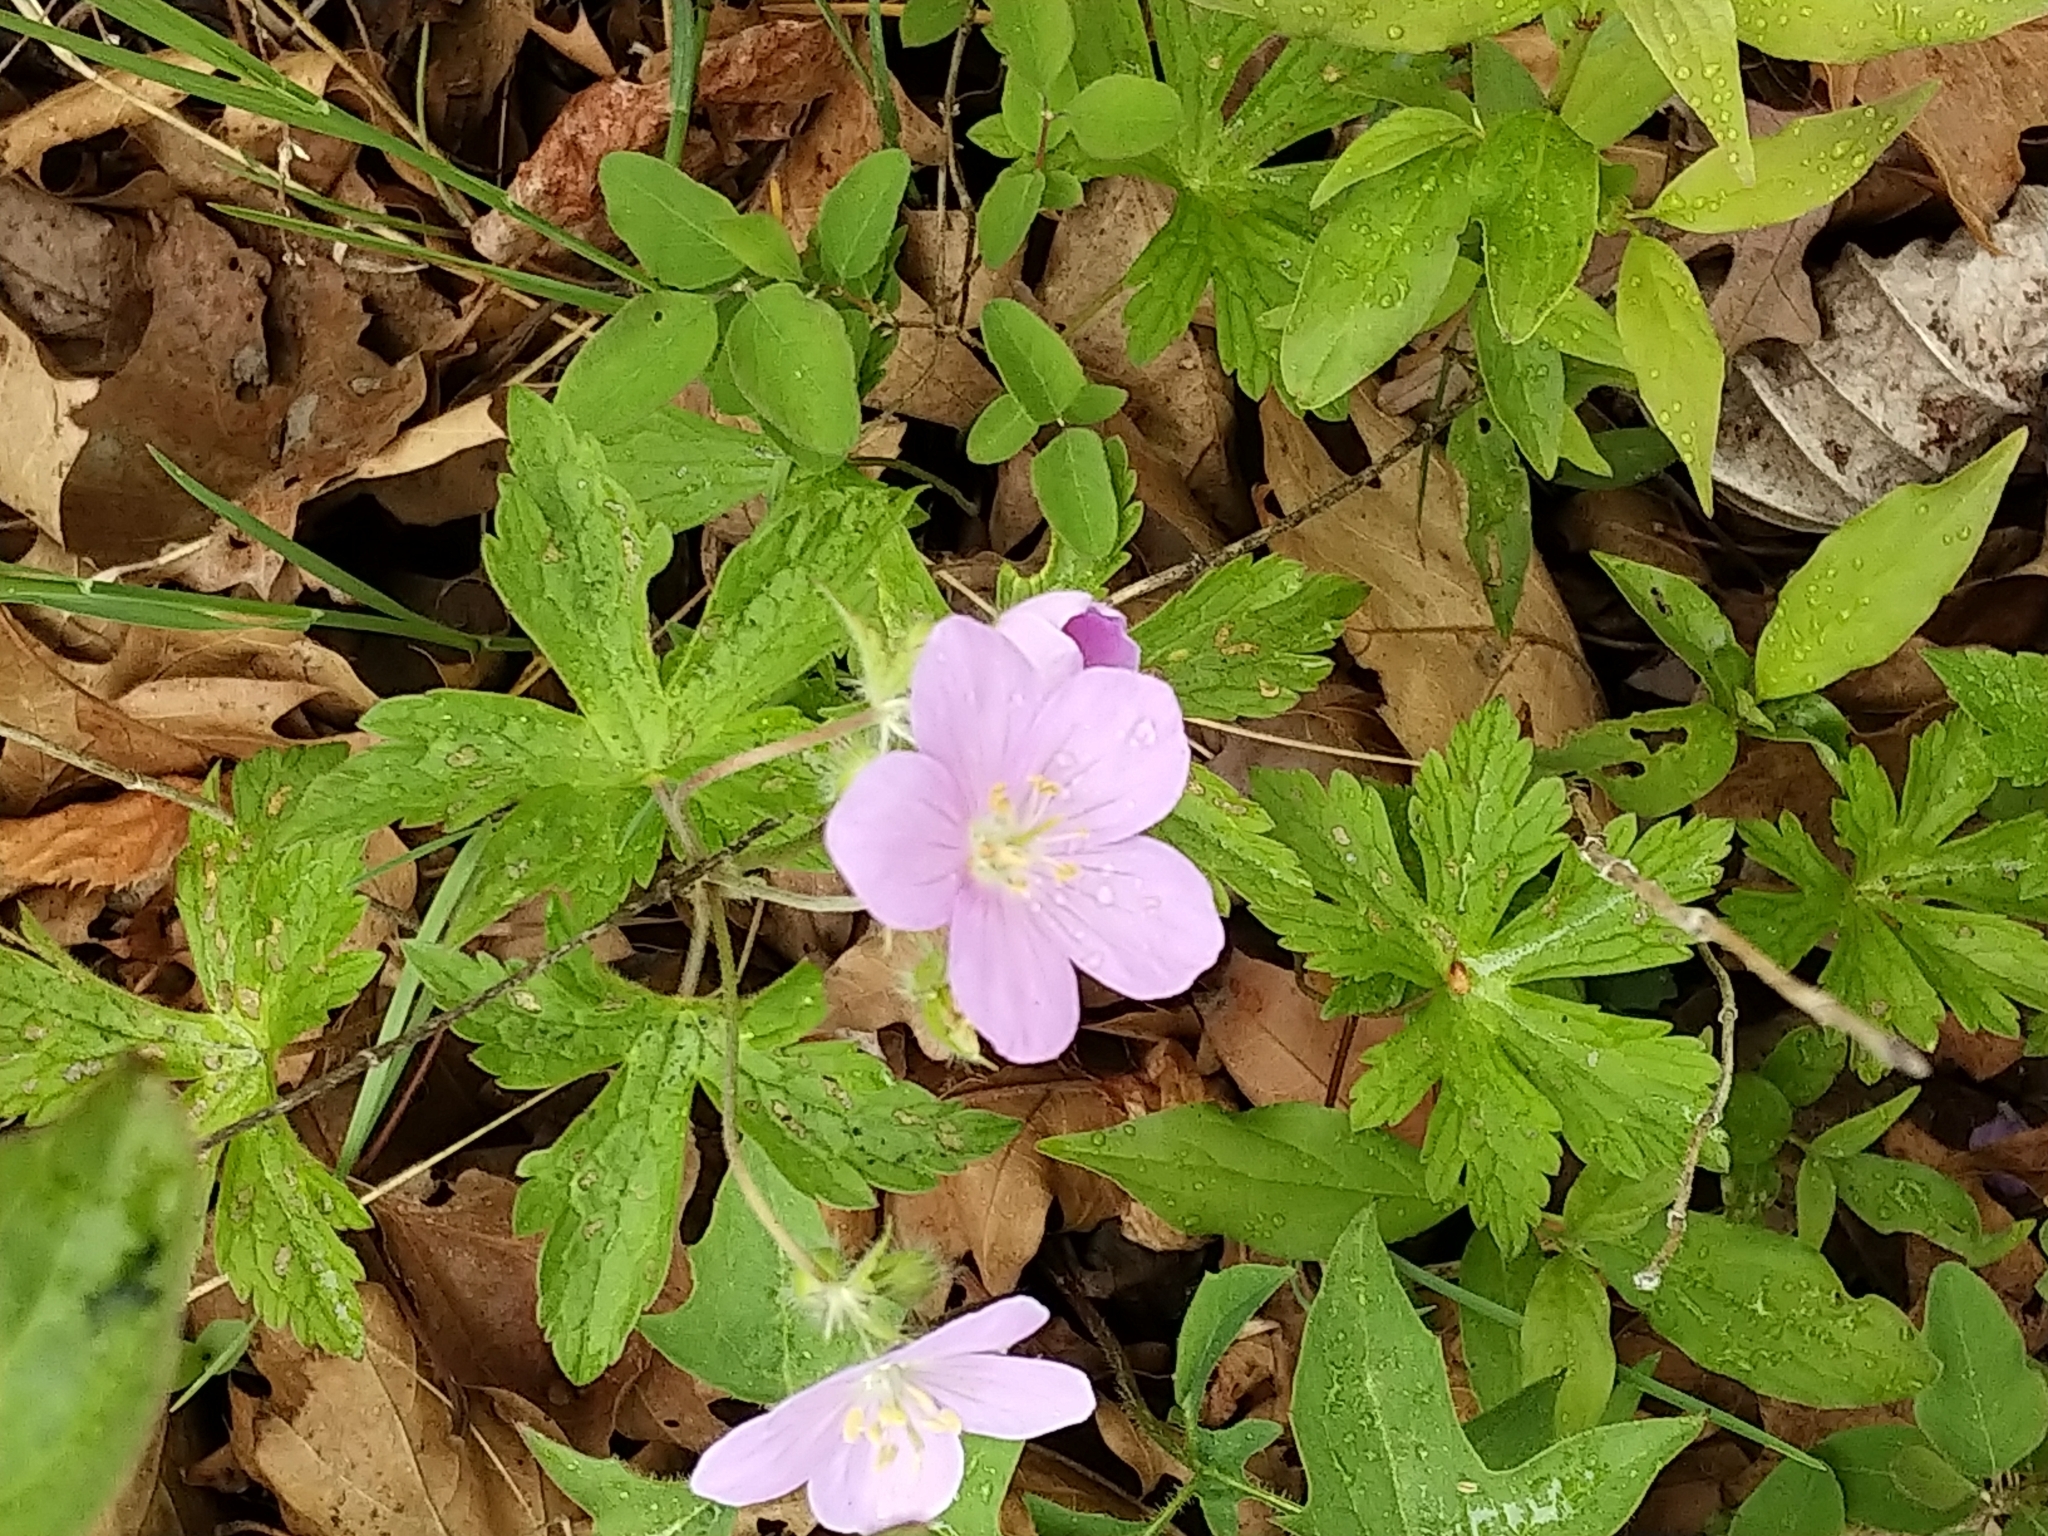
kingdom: Plantae
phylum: Tracheophyta
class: Magnoliopsida
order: Geraniales
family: Geraniaceae
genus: Geranium
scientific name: Geranium maculatum
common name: Spotted geranium
